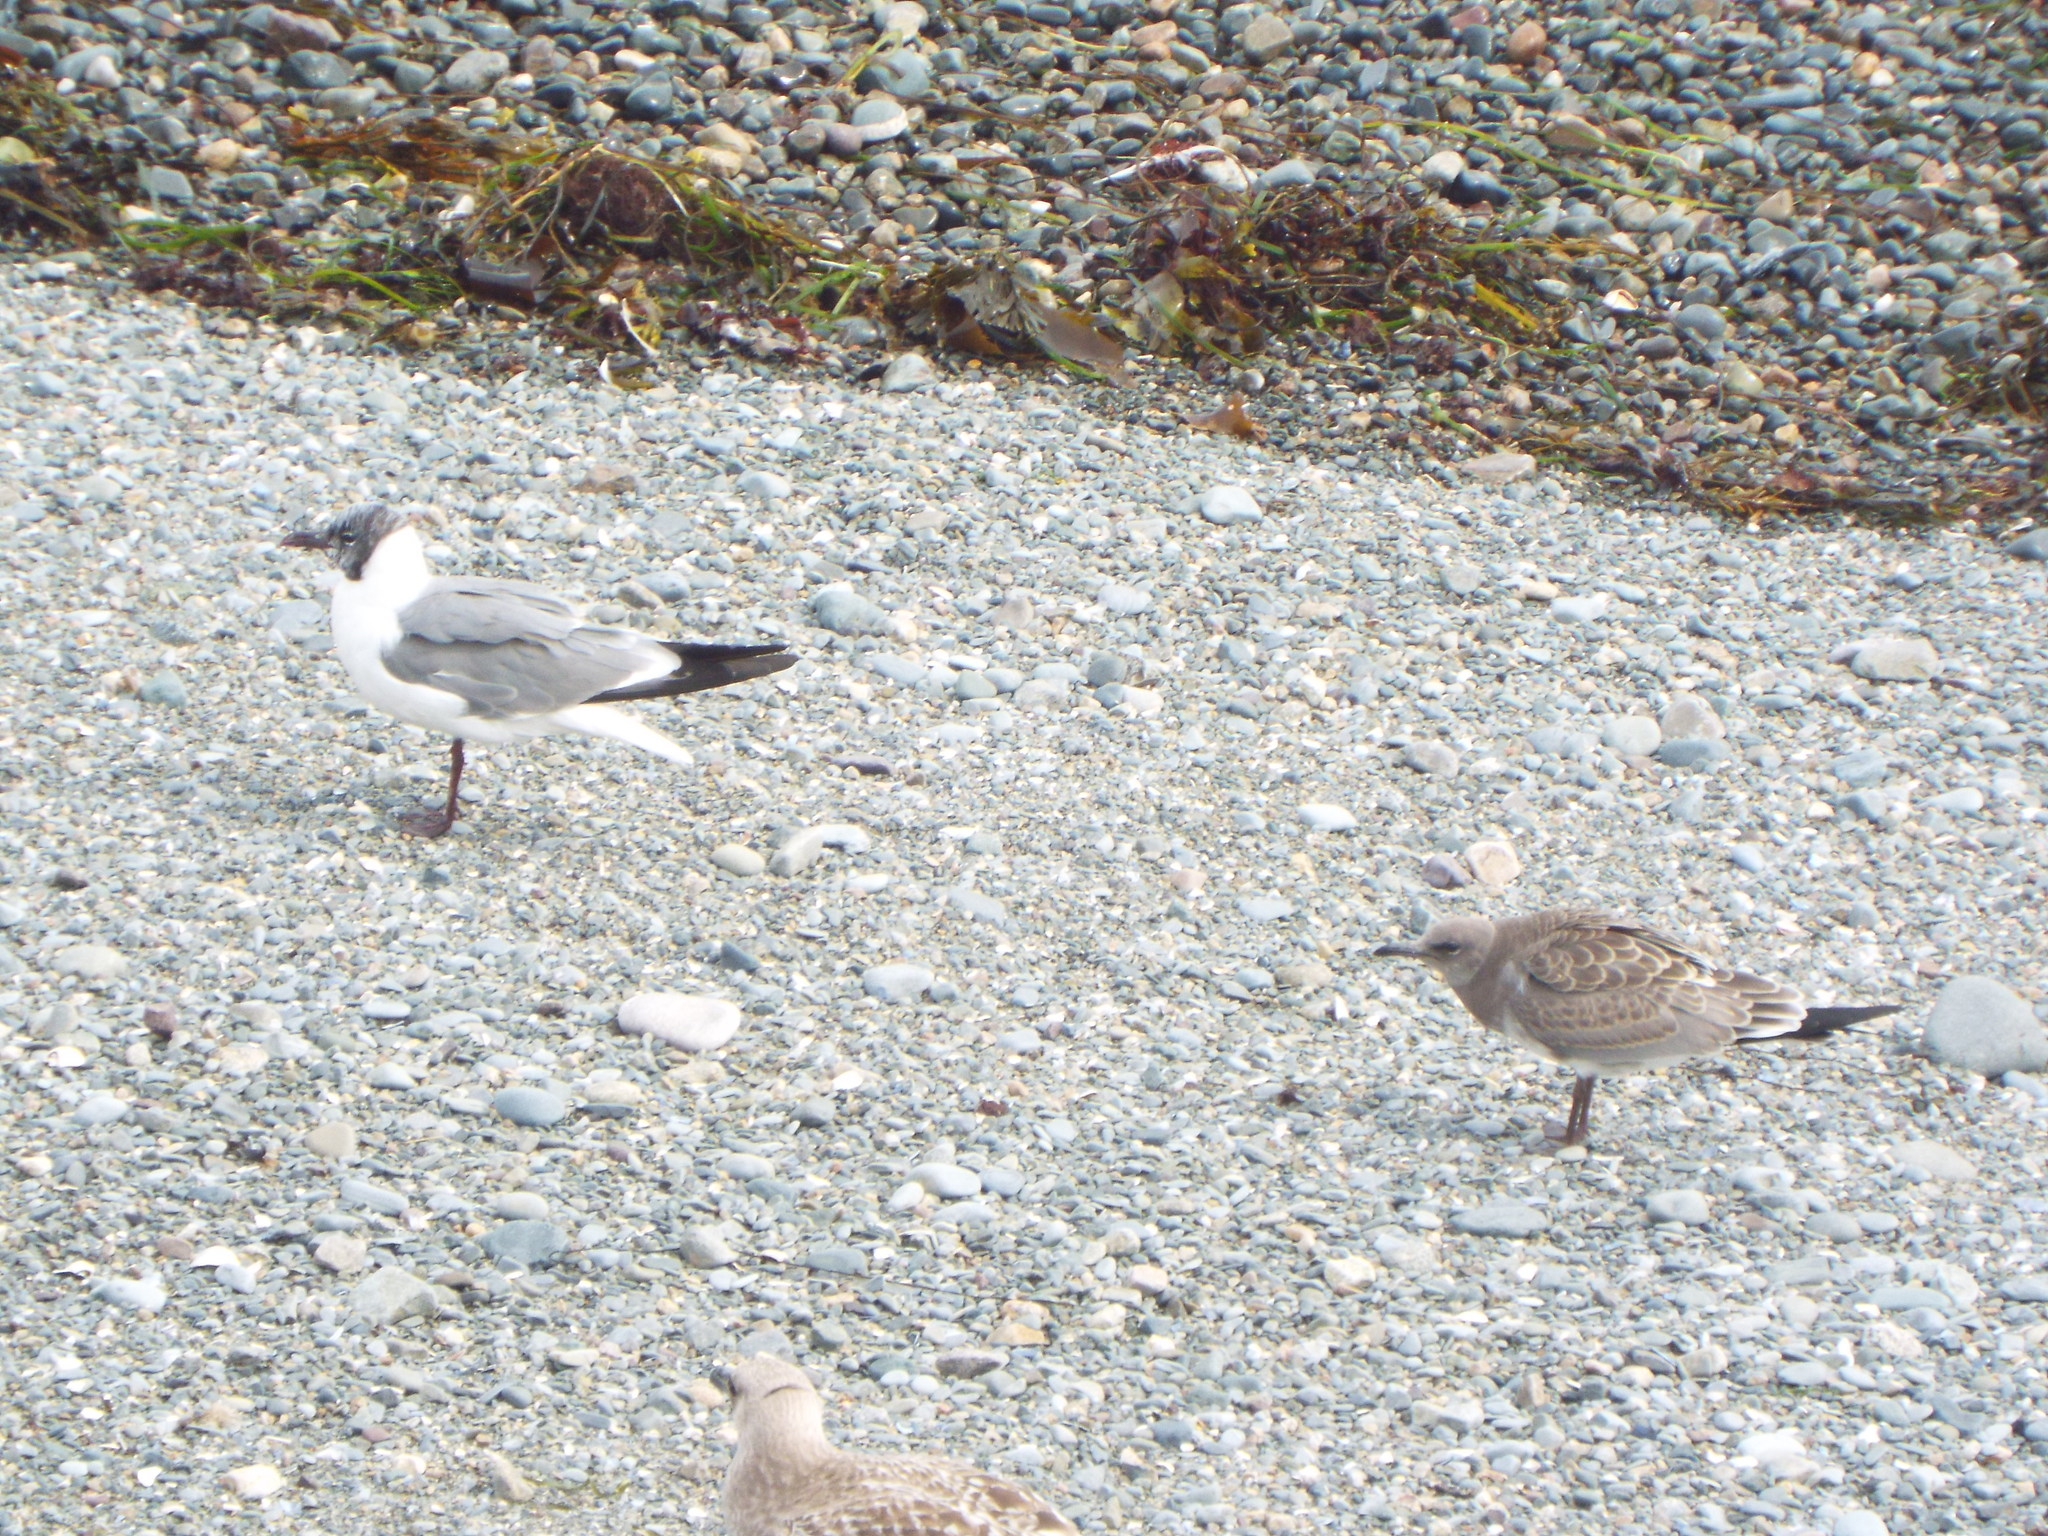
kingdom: Animalia
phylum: Chordata
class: Aves
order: Charadriiformes
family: Laridae
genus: Leucophaeus
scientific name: Leucophaeus atricilla
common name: Laughing gull
